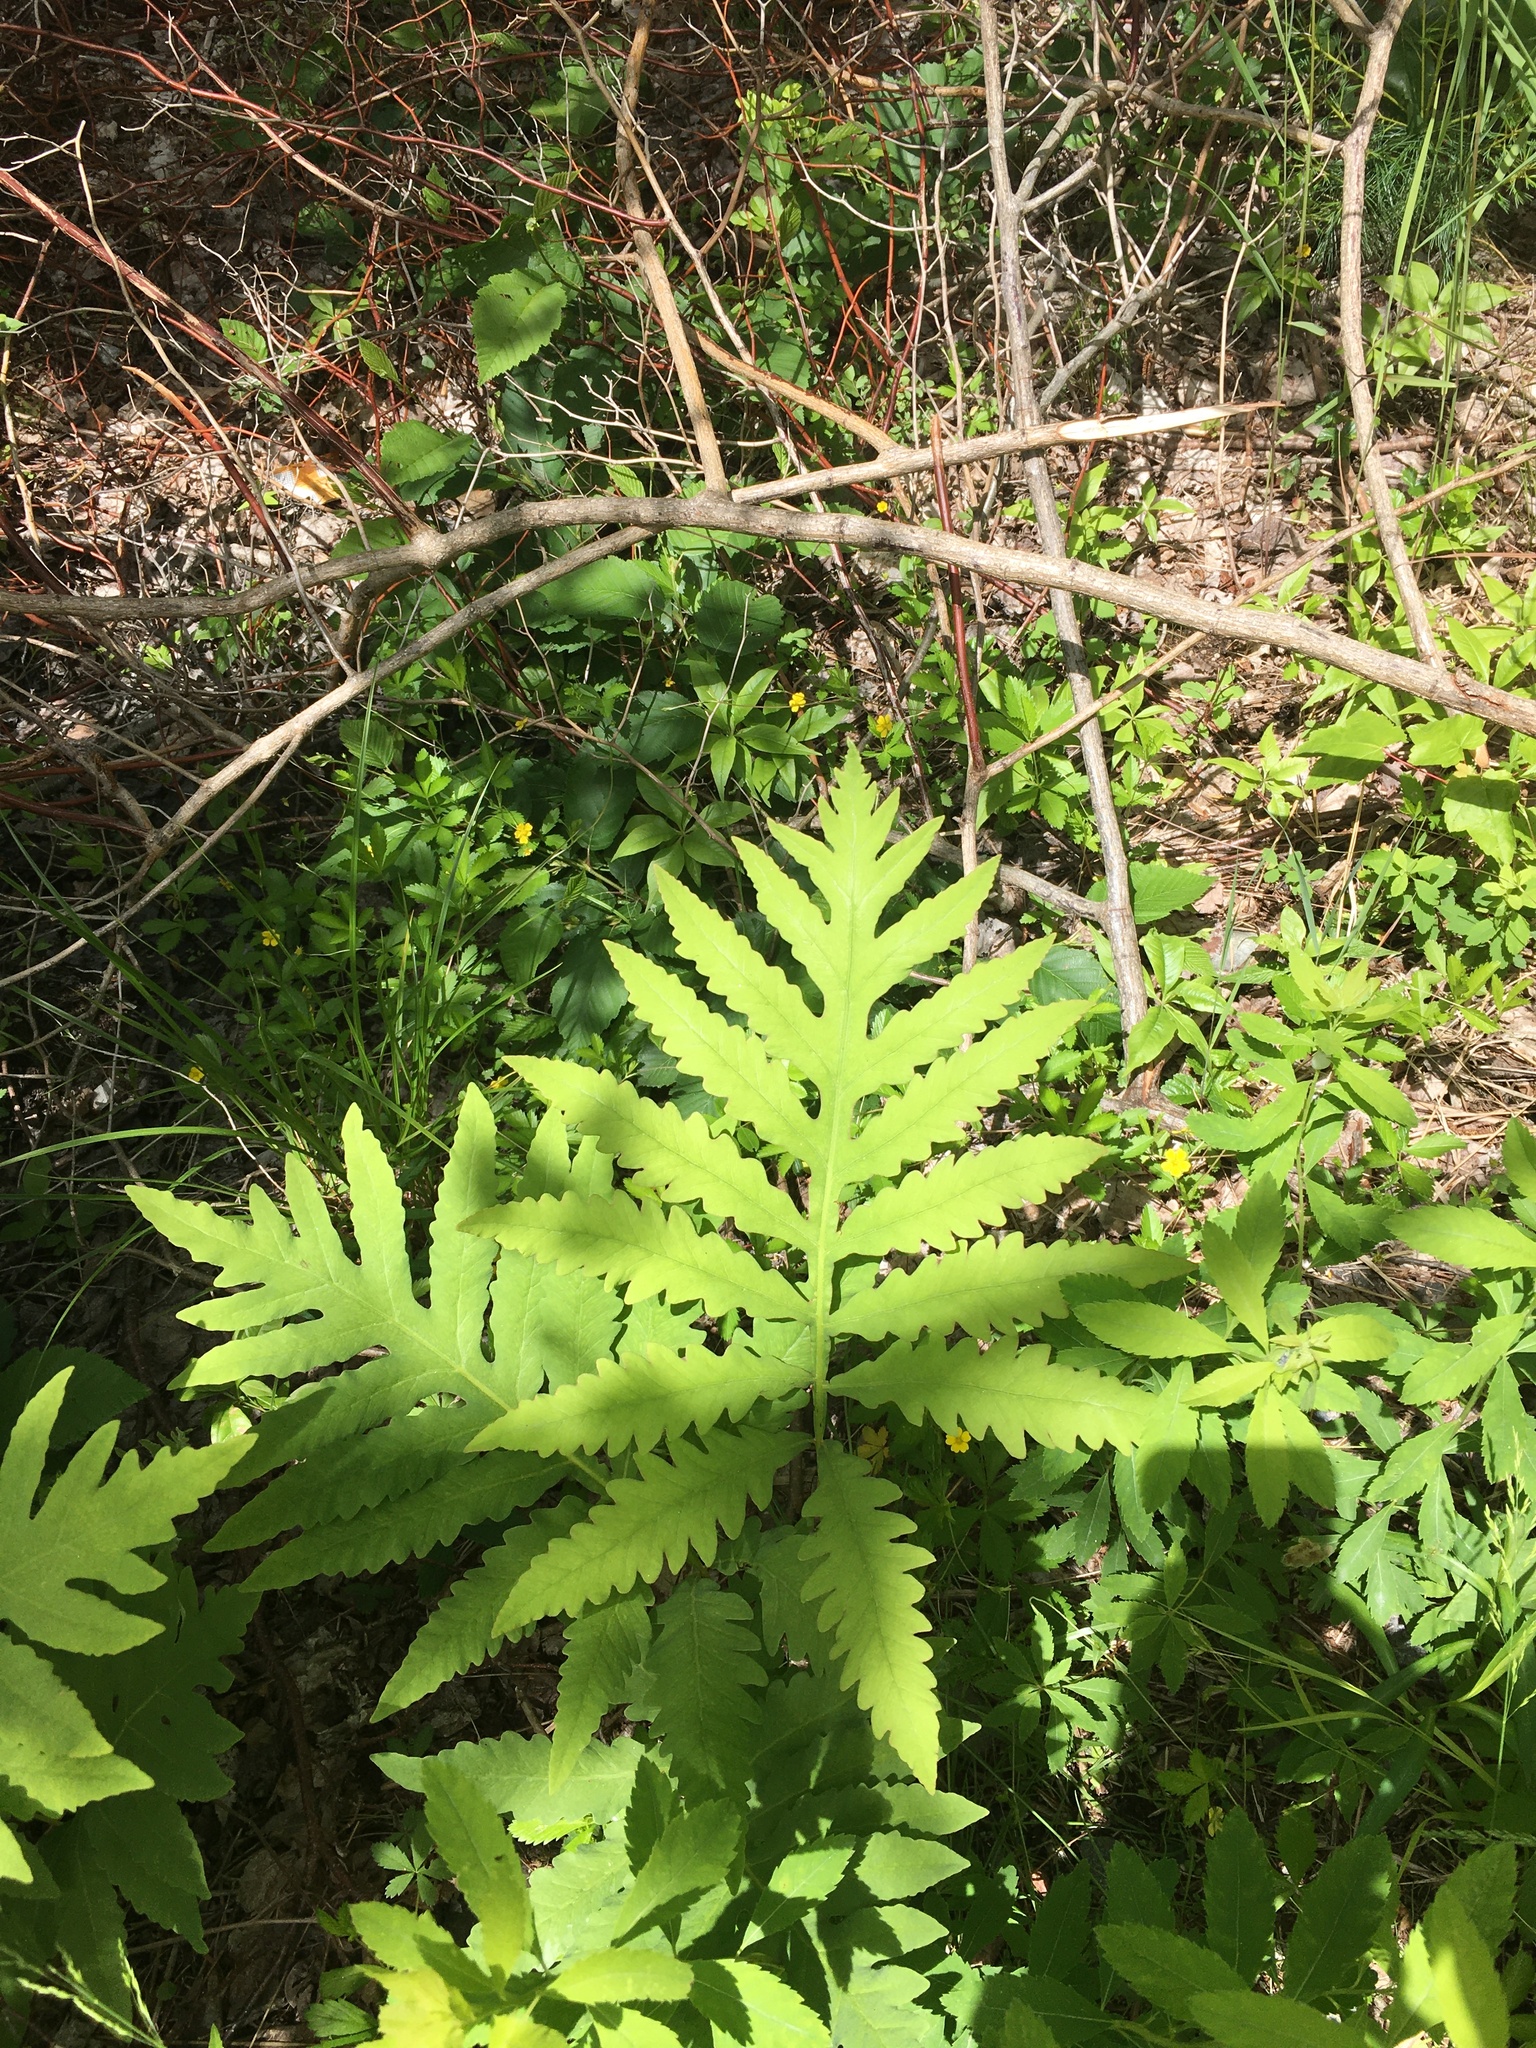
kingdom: Plantae
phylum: Tracheophyta
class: Polypodiopsida
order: Polypodiales
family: Onocleaceae
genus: Onoclea
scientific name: Onoclea sensibilis
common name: Sensitive fern
